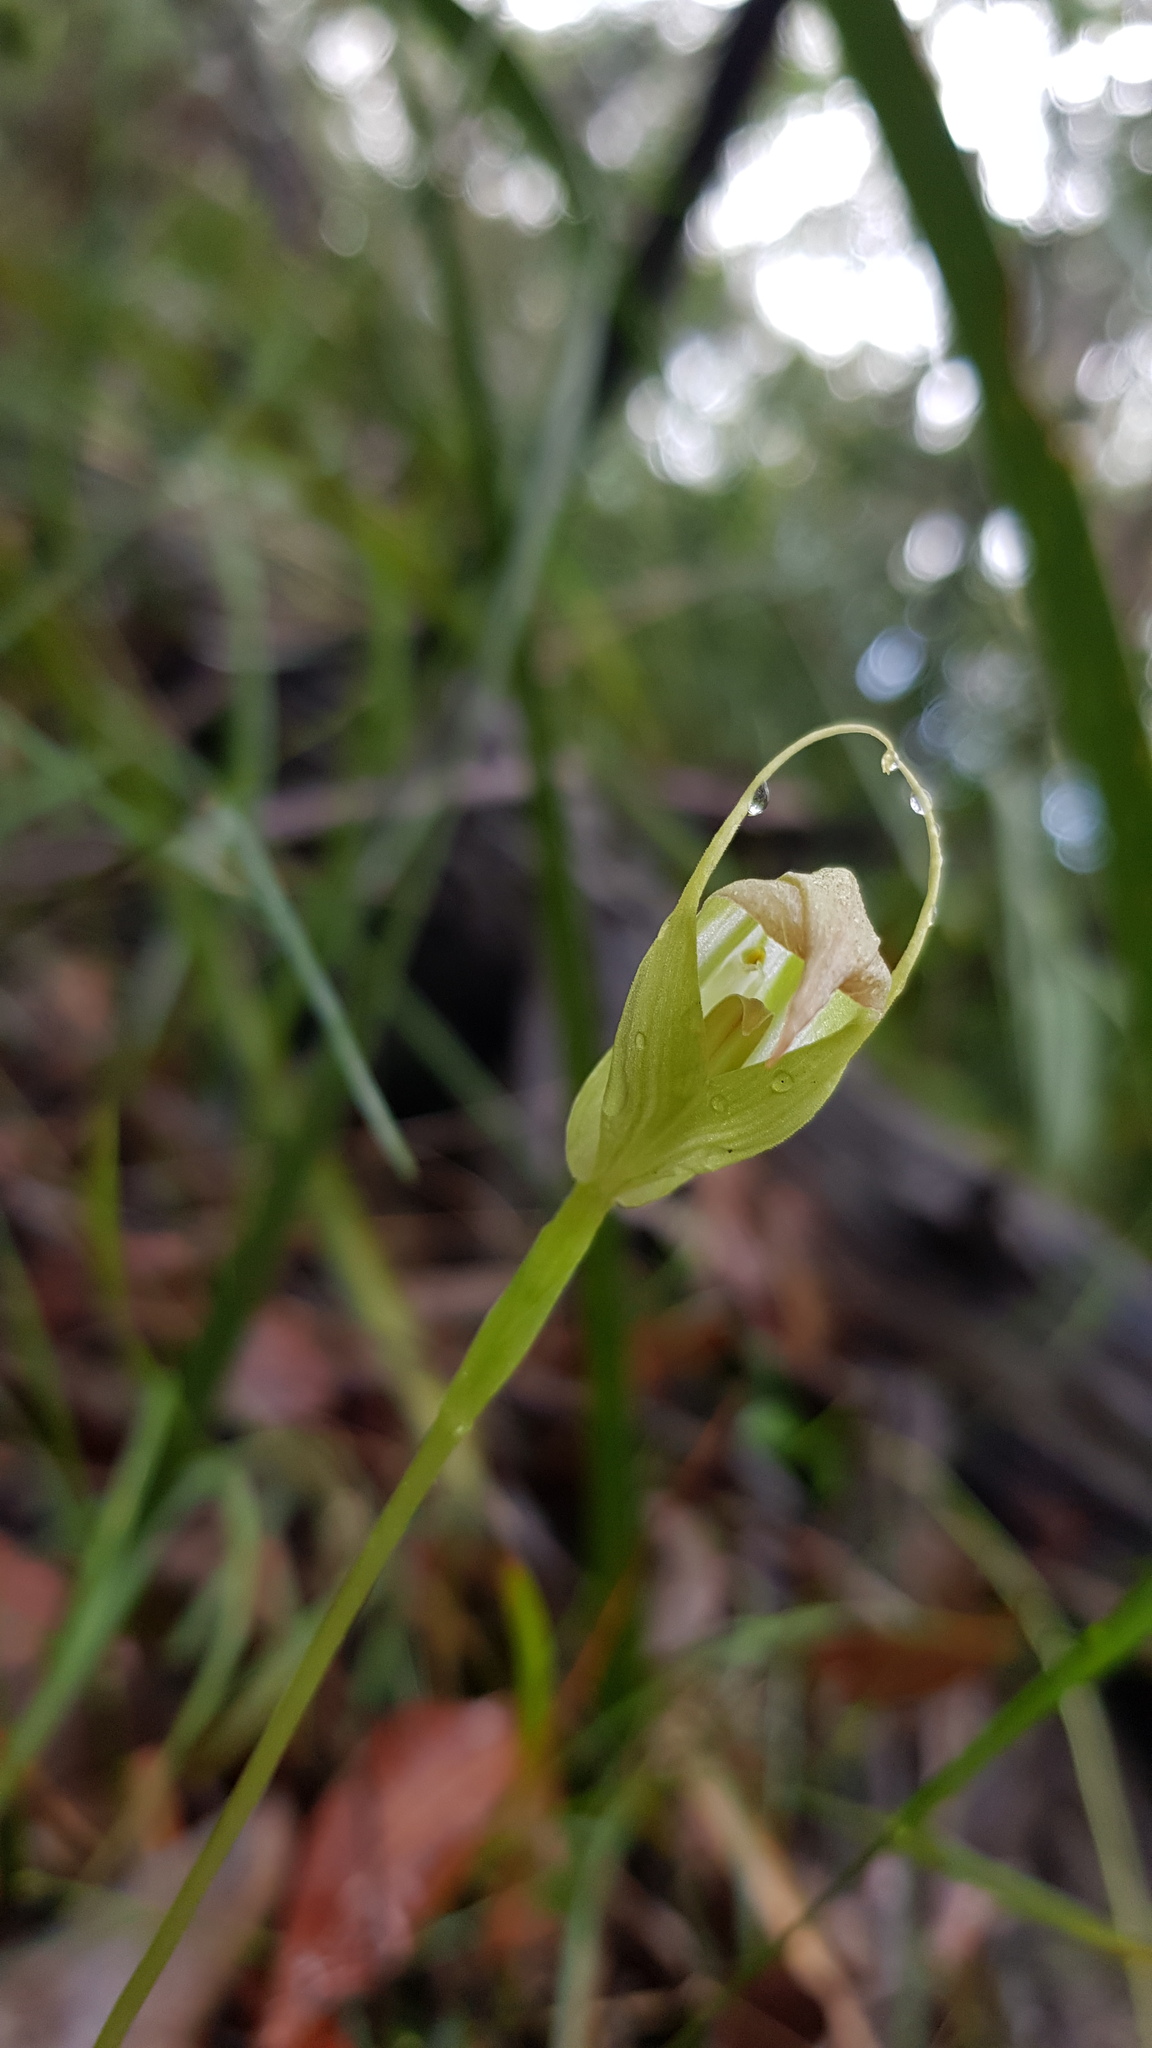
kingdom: Plantae
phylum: Tracheophyta
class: Liliopsida
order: Asparagales
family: Orchidaceae
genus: Pterostylis
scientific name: Pterostylis acuminata
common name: Pointed greenhood
